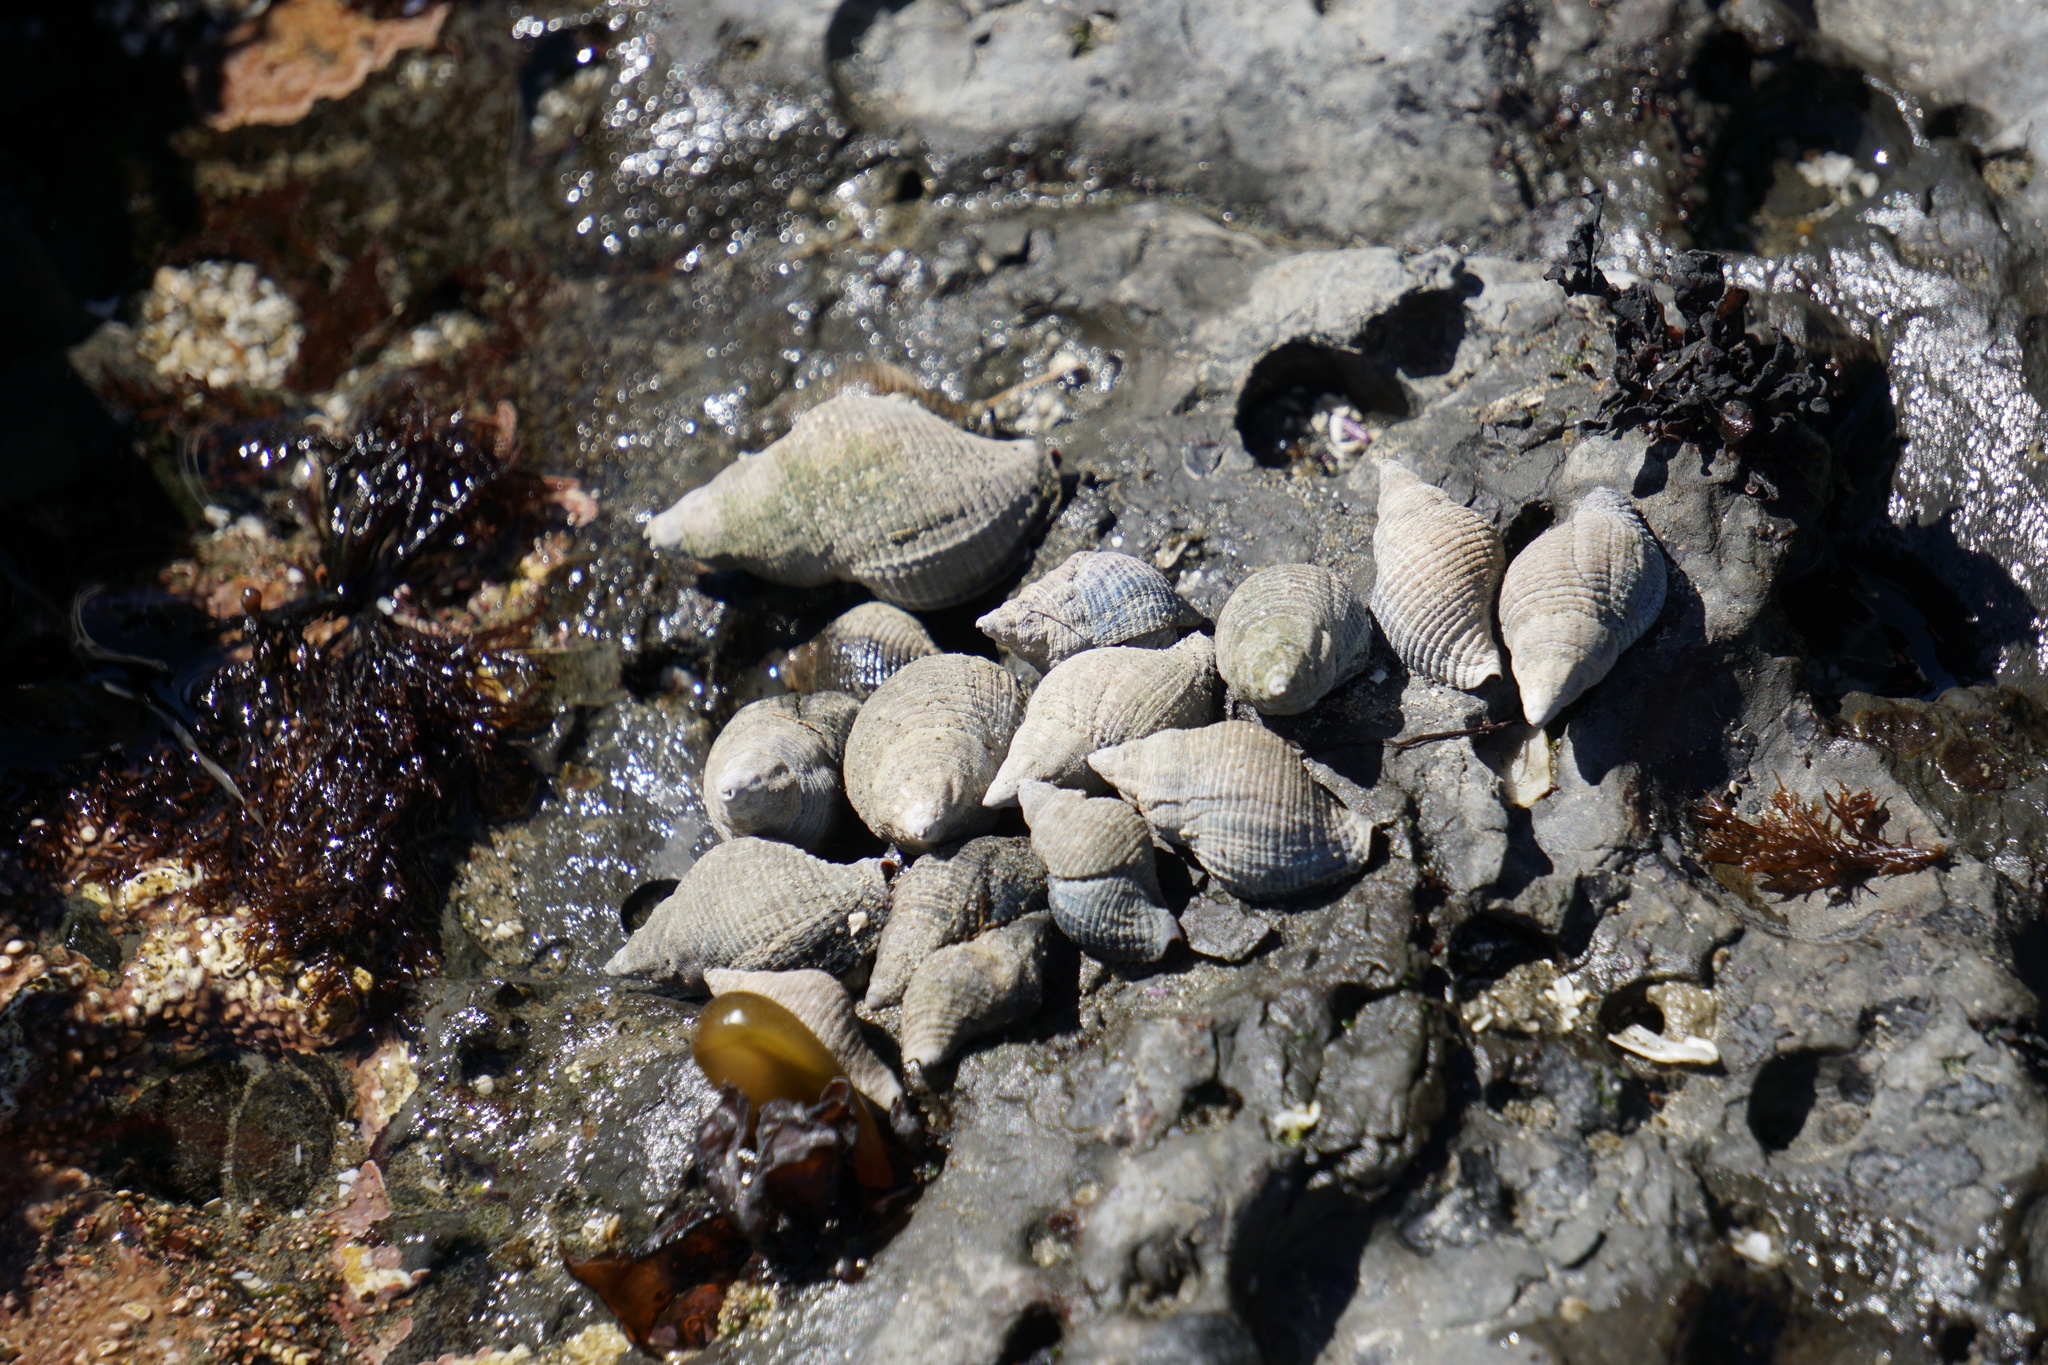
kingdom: Animalia
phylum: Mollusca
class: Gastropoda
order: Neogastropoda
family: Tudiclidae
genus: Lirabuccinum
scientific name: Lirabuccinum dirum
